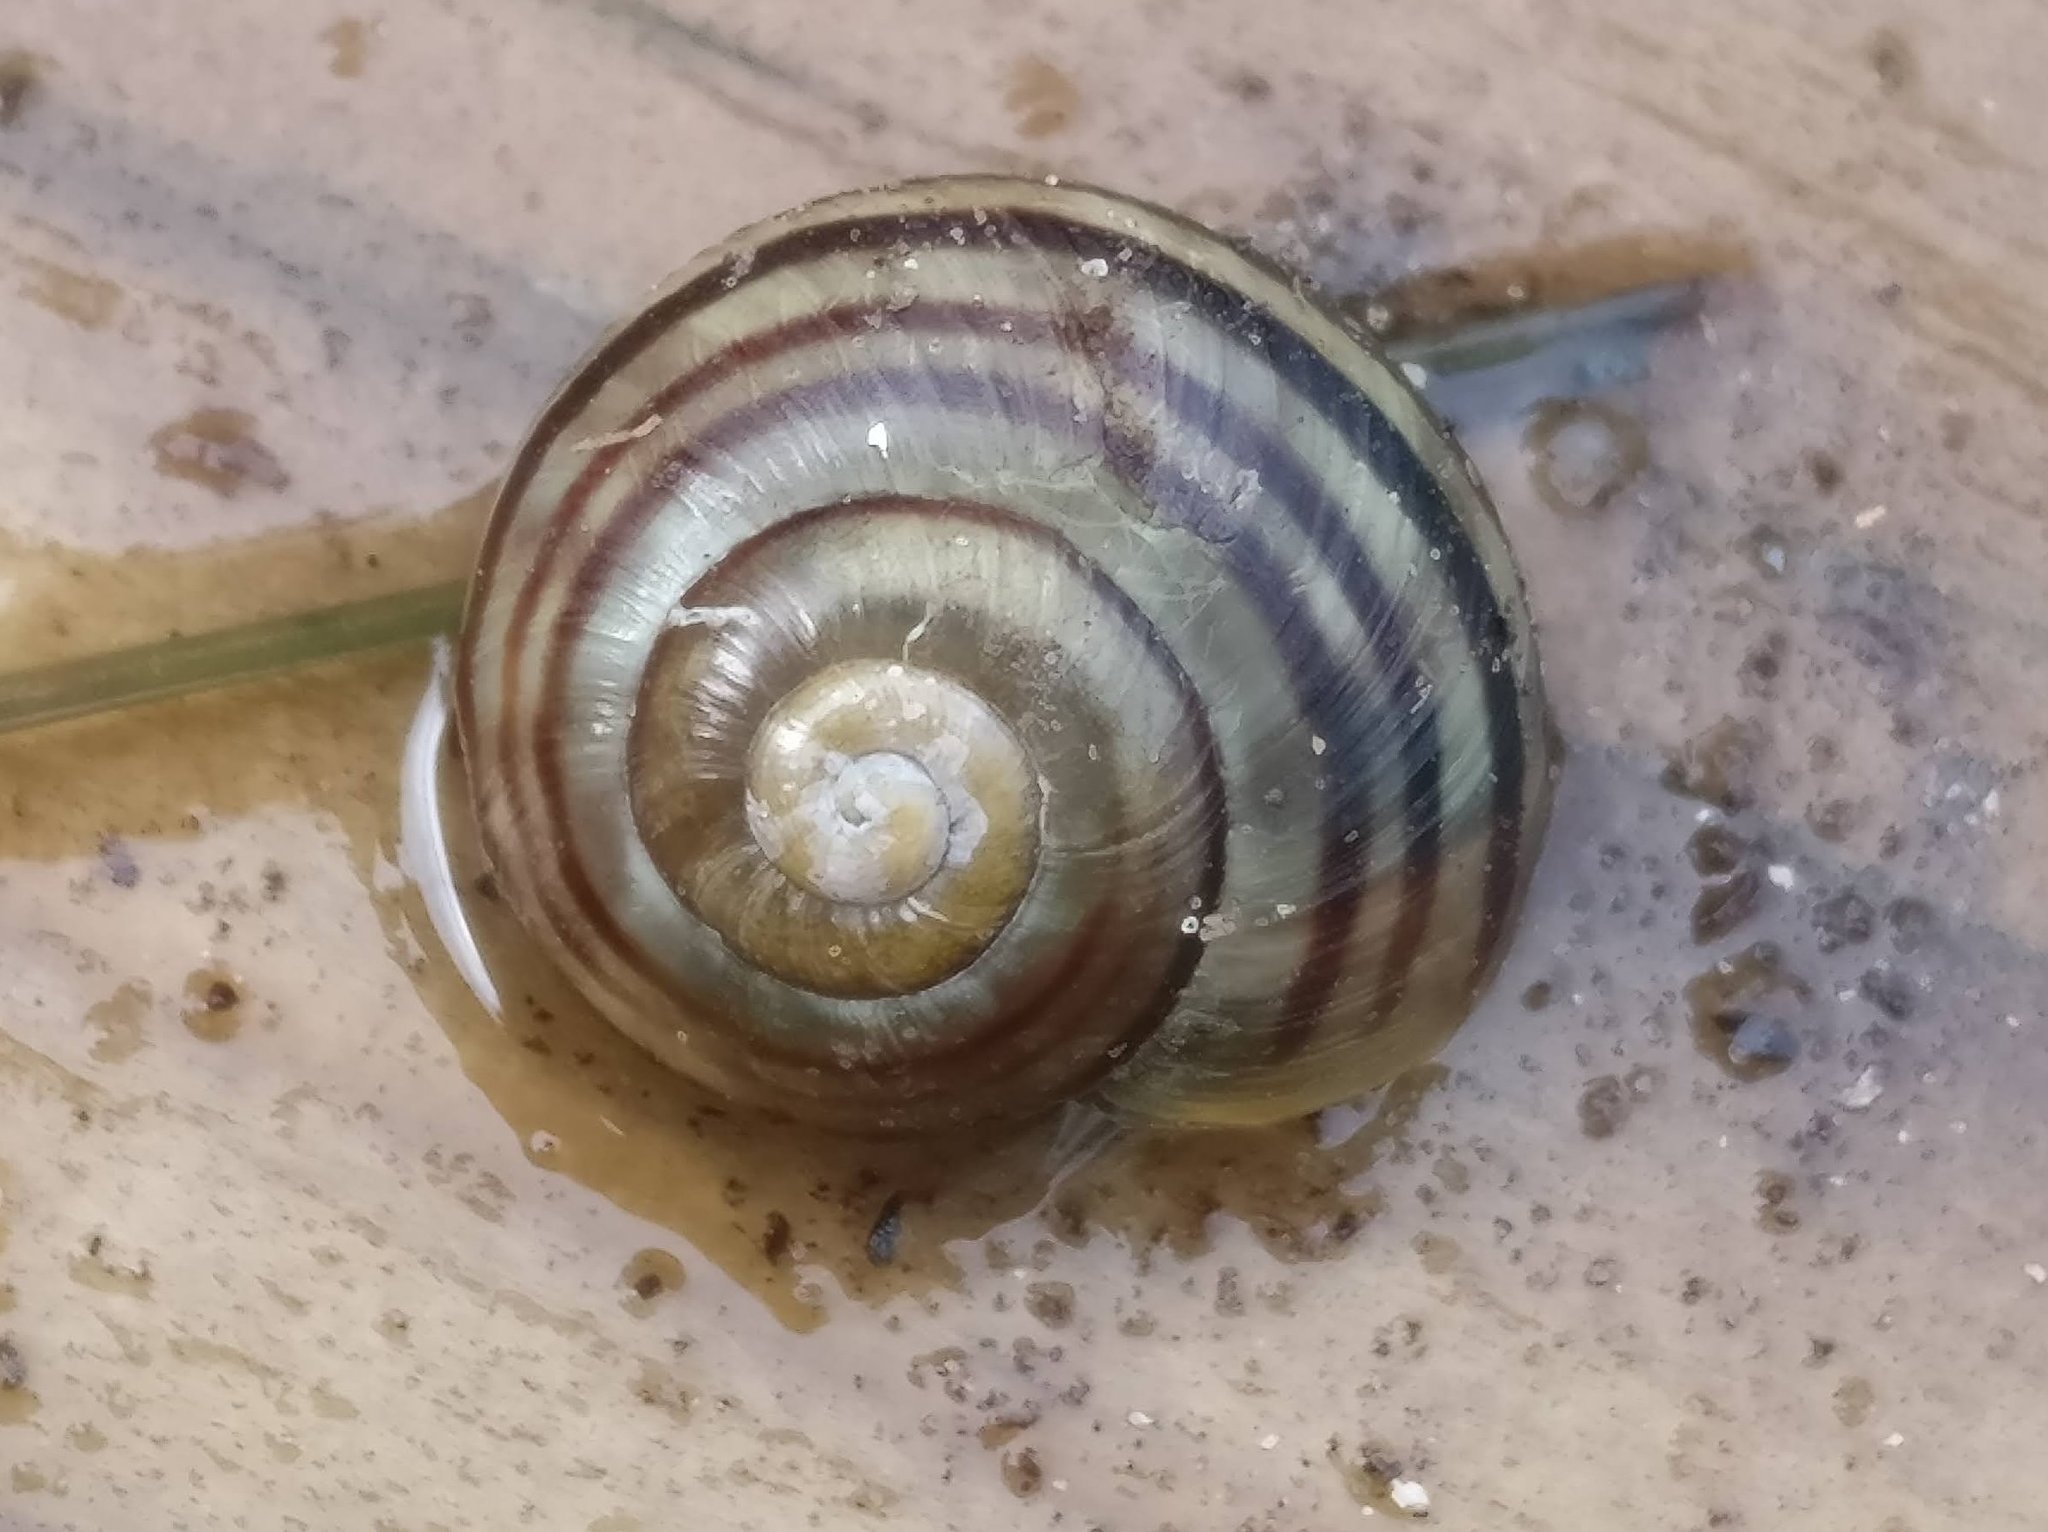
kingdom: Animalia
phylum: Mollusca
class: Gastropoda
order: Stylommatophora
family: Helicidae
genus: Cepaea
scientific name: Cepaea hortensis
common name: White-lip gardensnail
